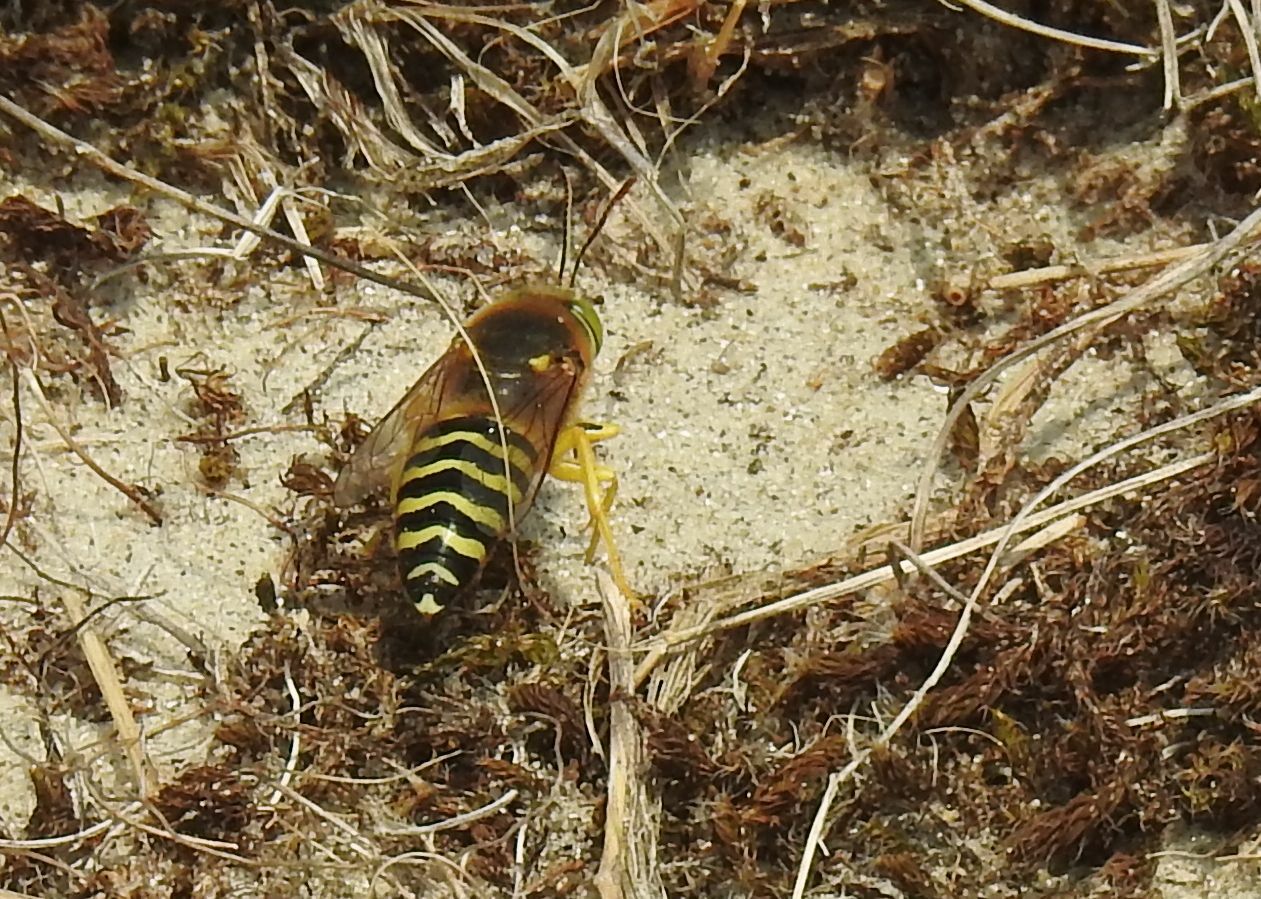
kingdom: Animalia
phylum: Arthropoda
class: Insecta
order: Hymenoptera
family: Crabronidae
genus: Bembix
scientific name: Bembix rostrata
